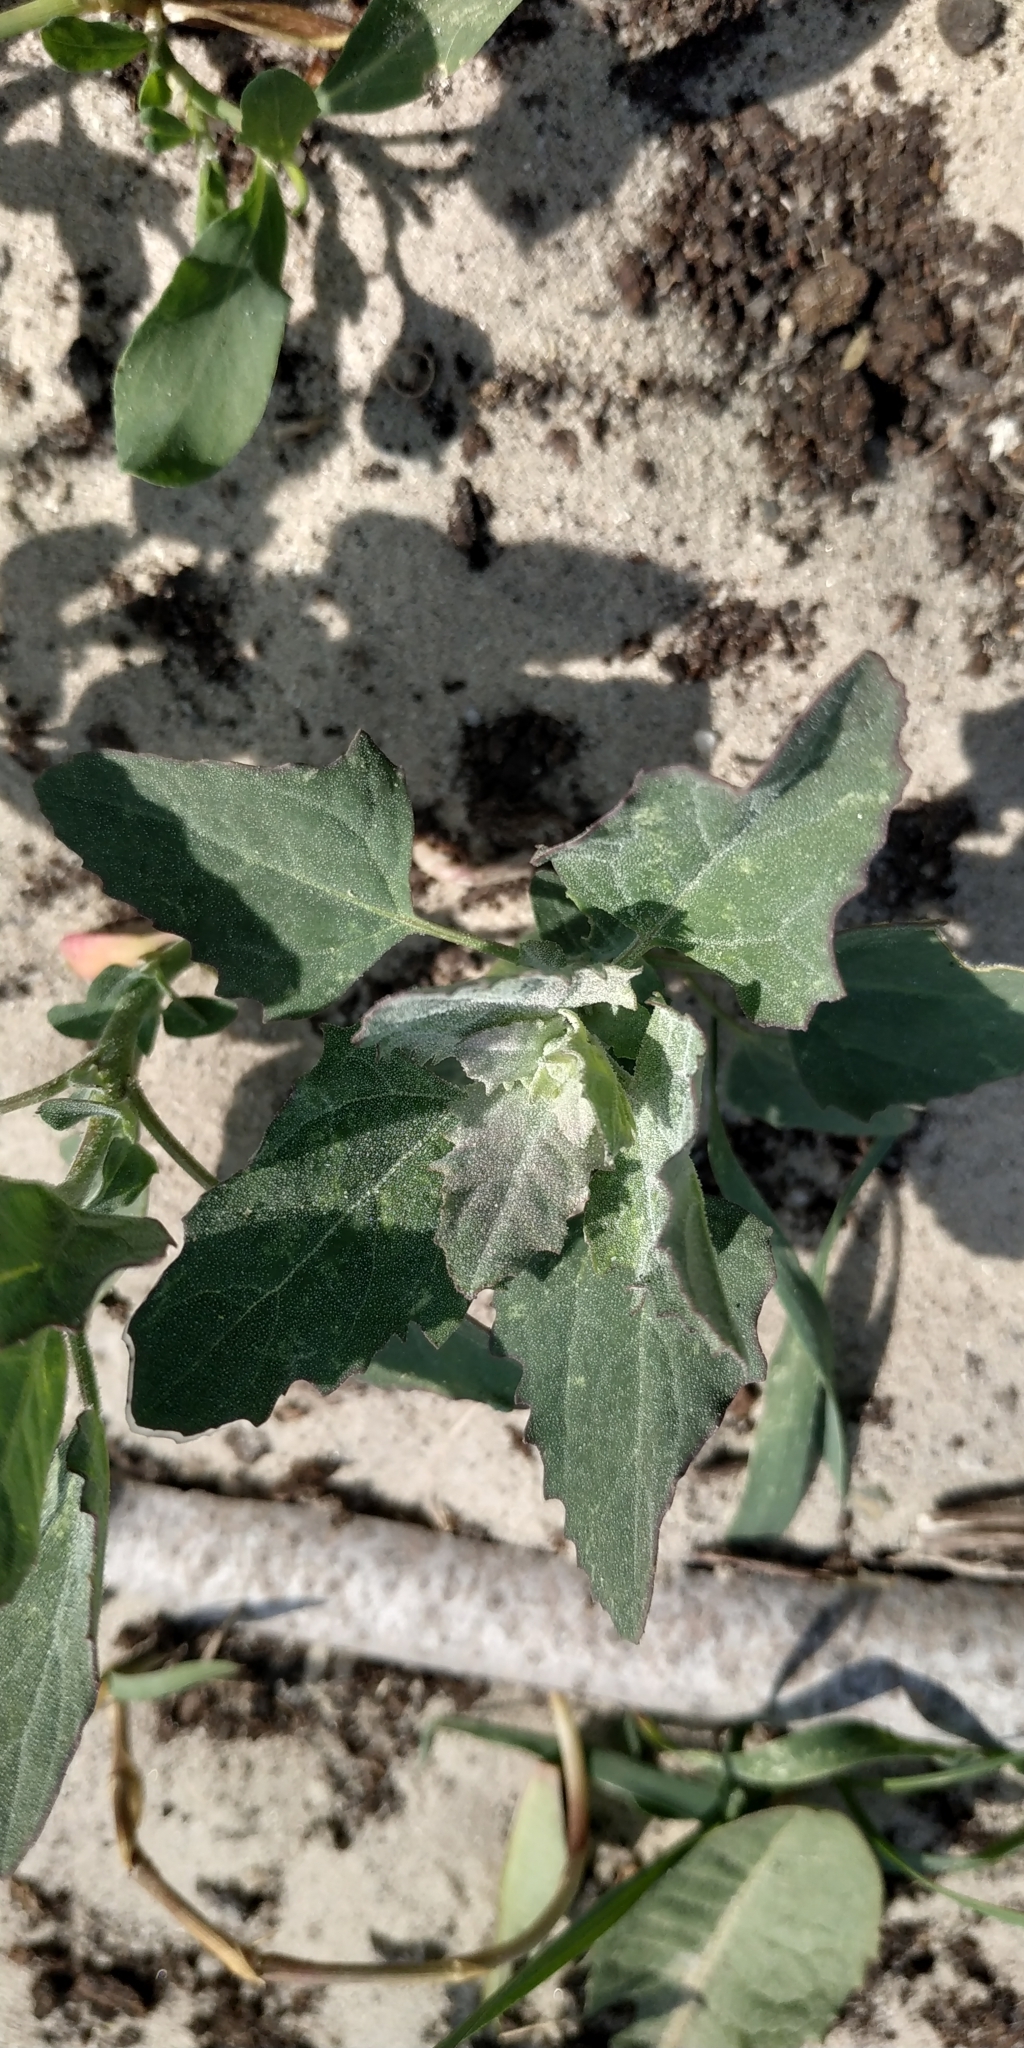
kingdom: Plantae
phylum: Tracheophyta
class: Magnoliopsida
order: Caryophyllales
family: Amaranthaceae
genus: Chenopodium
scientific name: Chenopodium album
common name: Fat-hen
